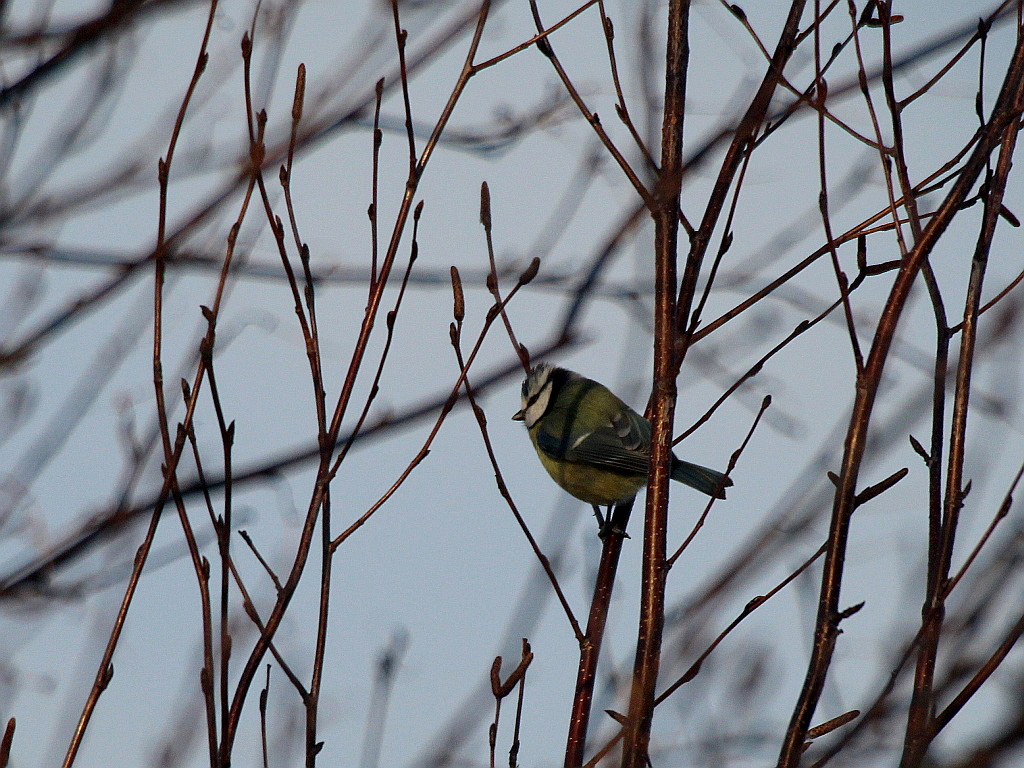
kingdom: Animalia
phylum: Chordata
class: Aves
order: Passeriformes
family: Paridae
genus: Cyanistes
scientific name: Cyanistes caeruleus
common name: Eurasian blue tit
